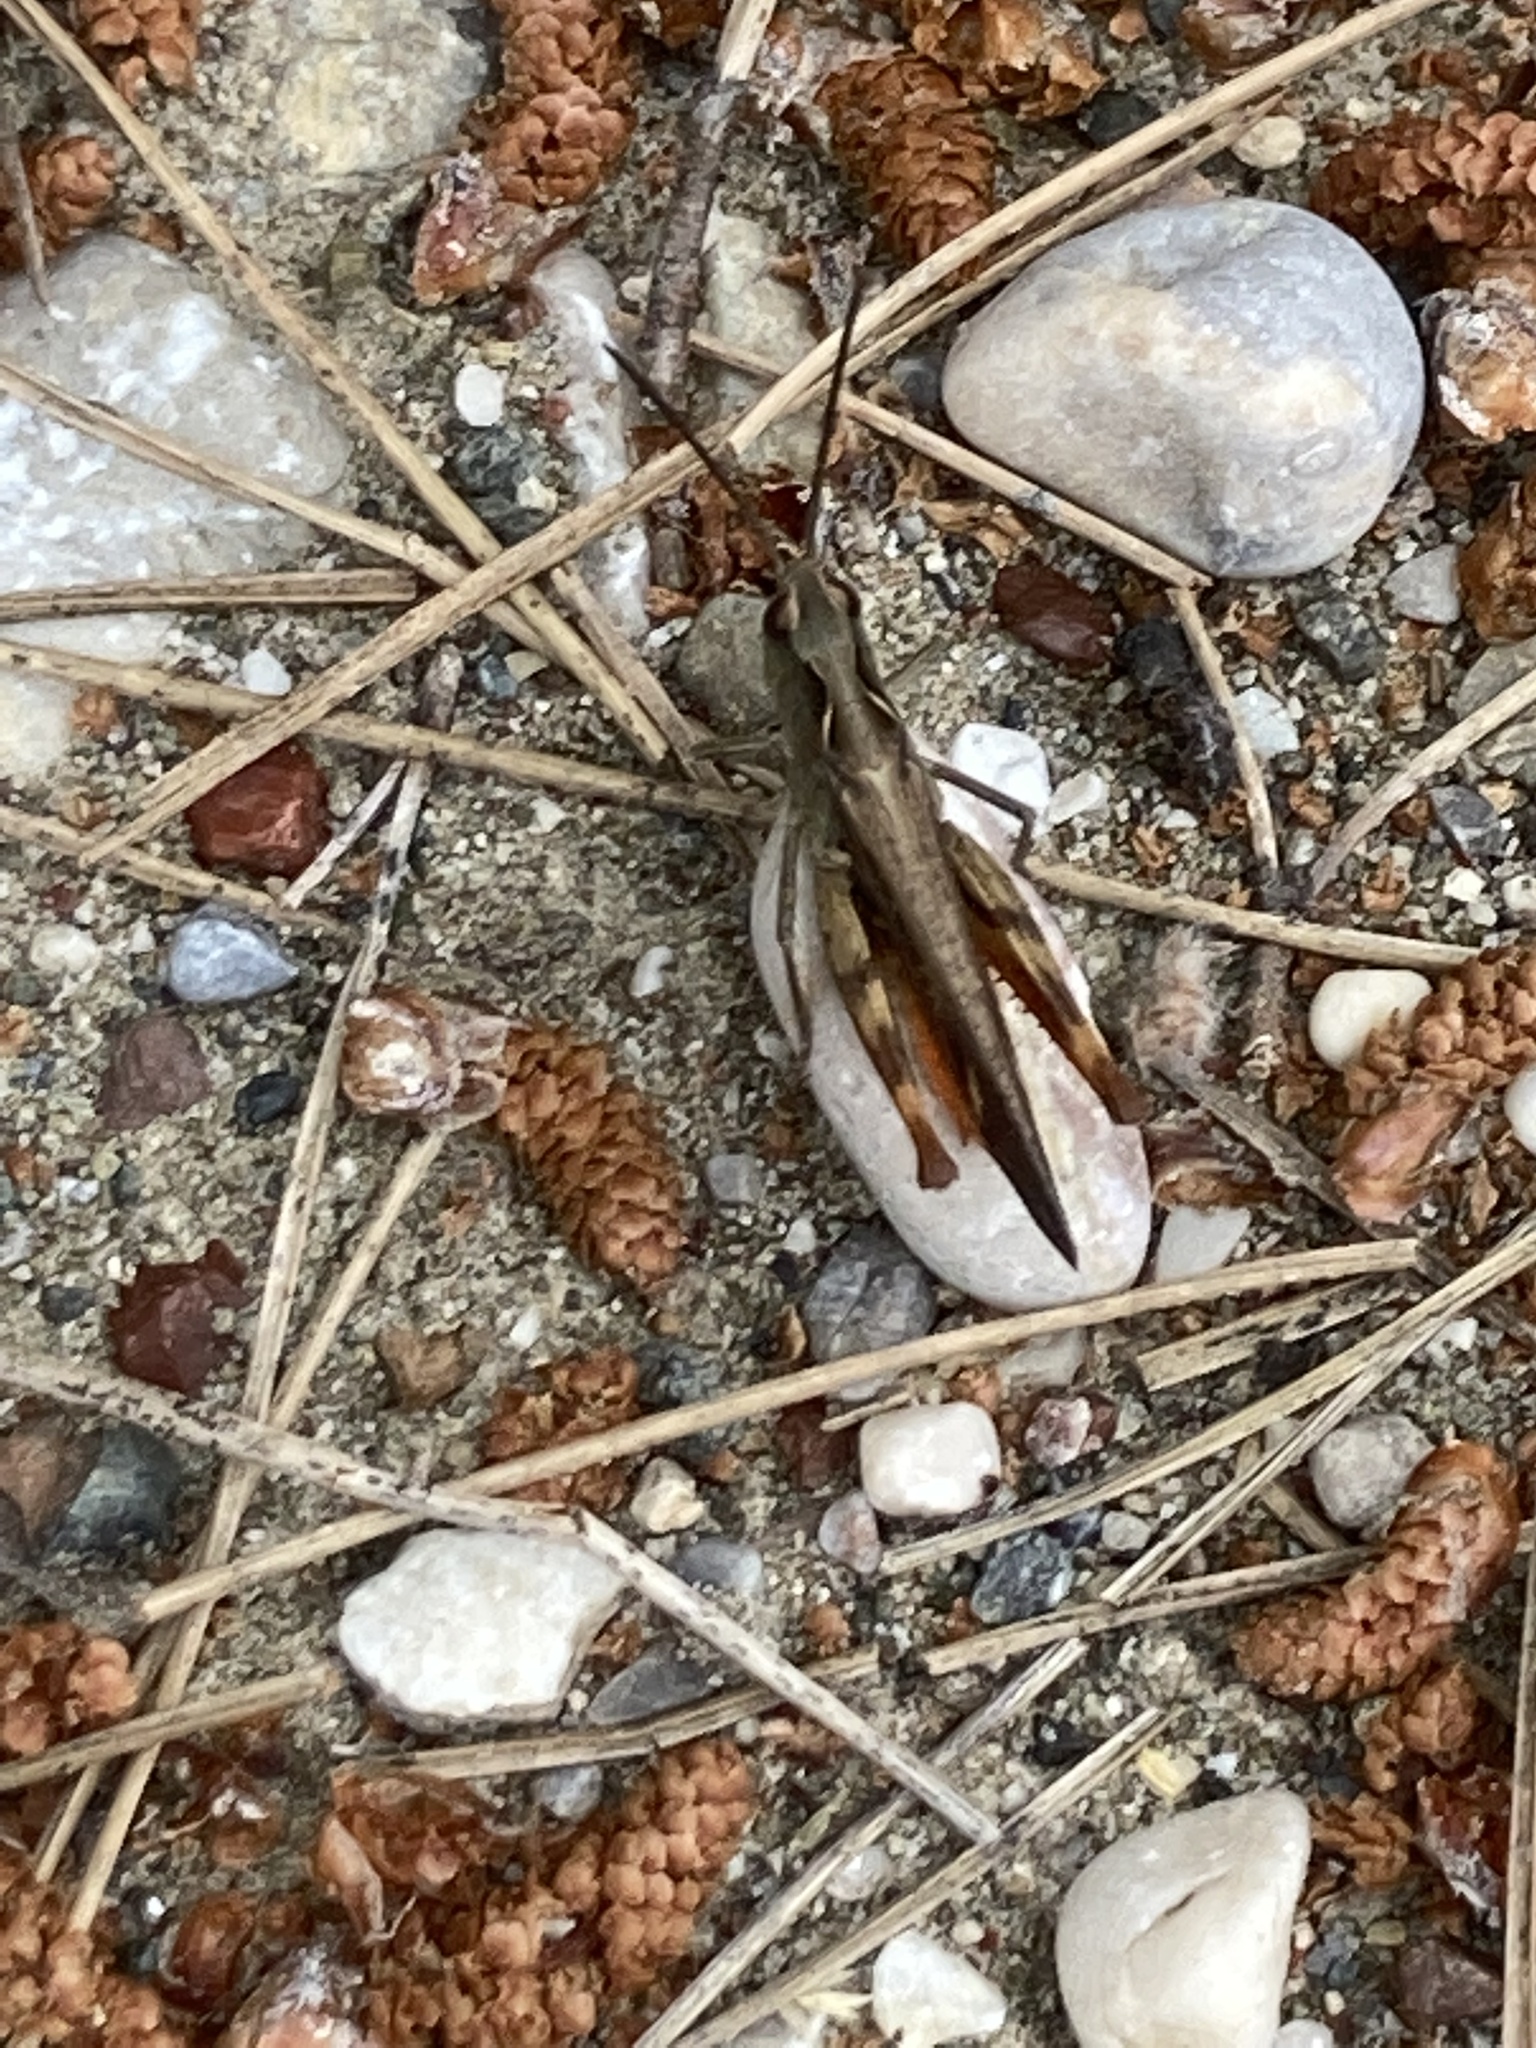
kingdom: Animalia
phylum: Arthropoda
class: Insecta
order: Orthoptera
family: Acrididae
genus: Chorthippus
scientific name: Chorthippus vagans
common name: Heath grasshopper
